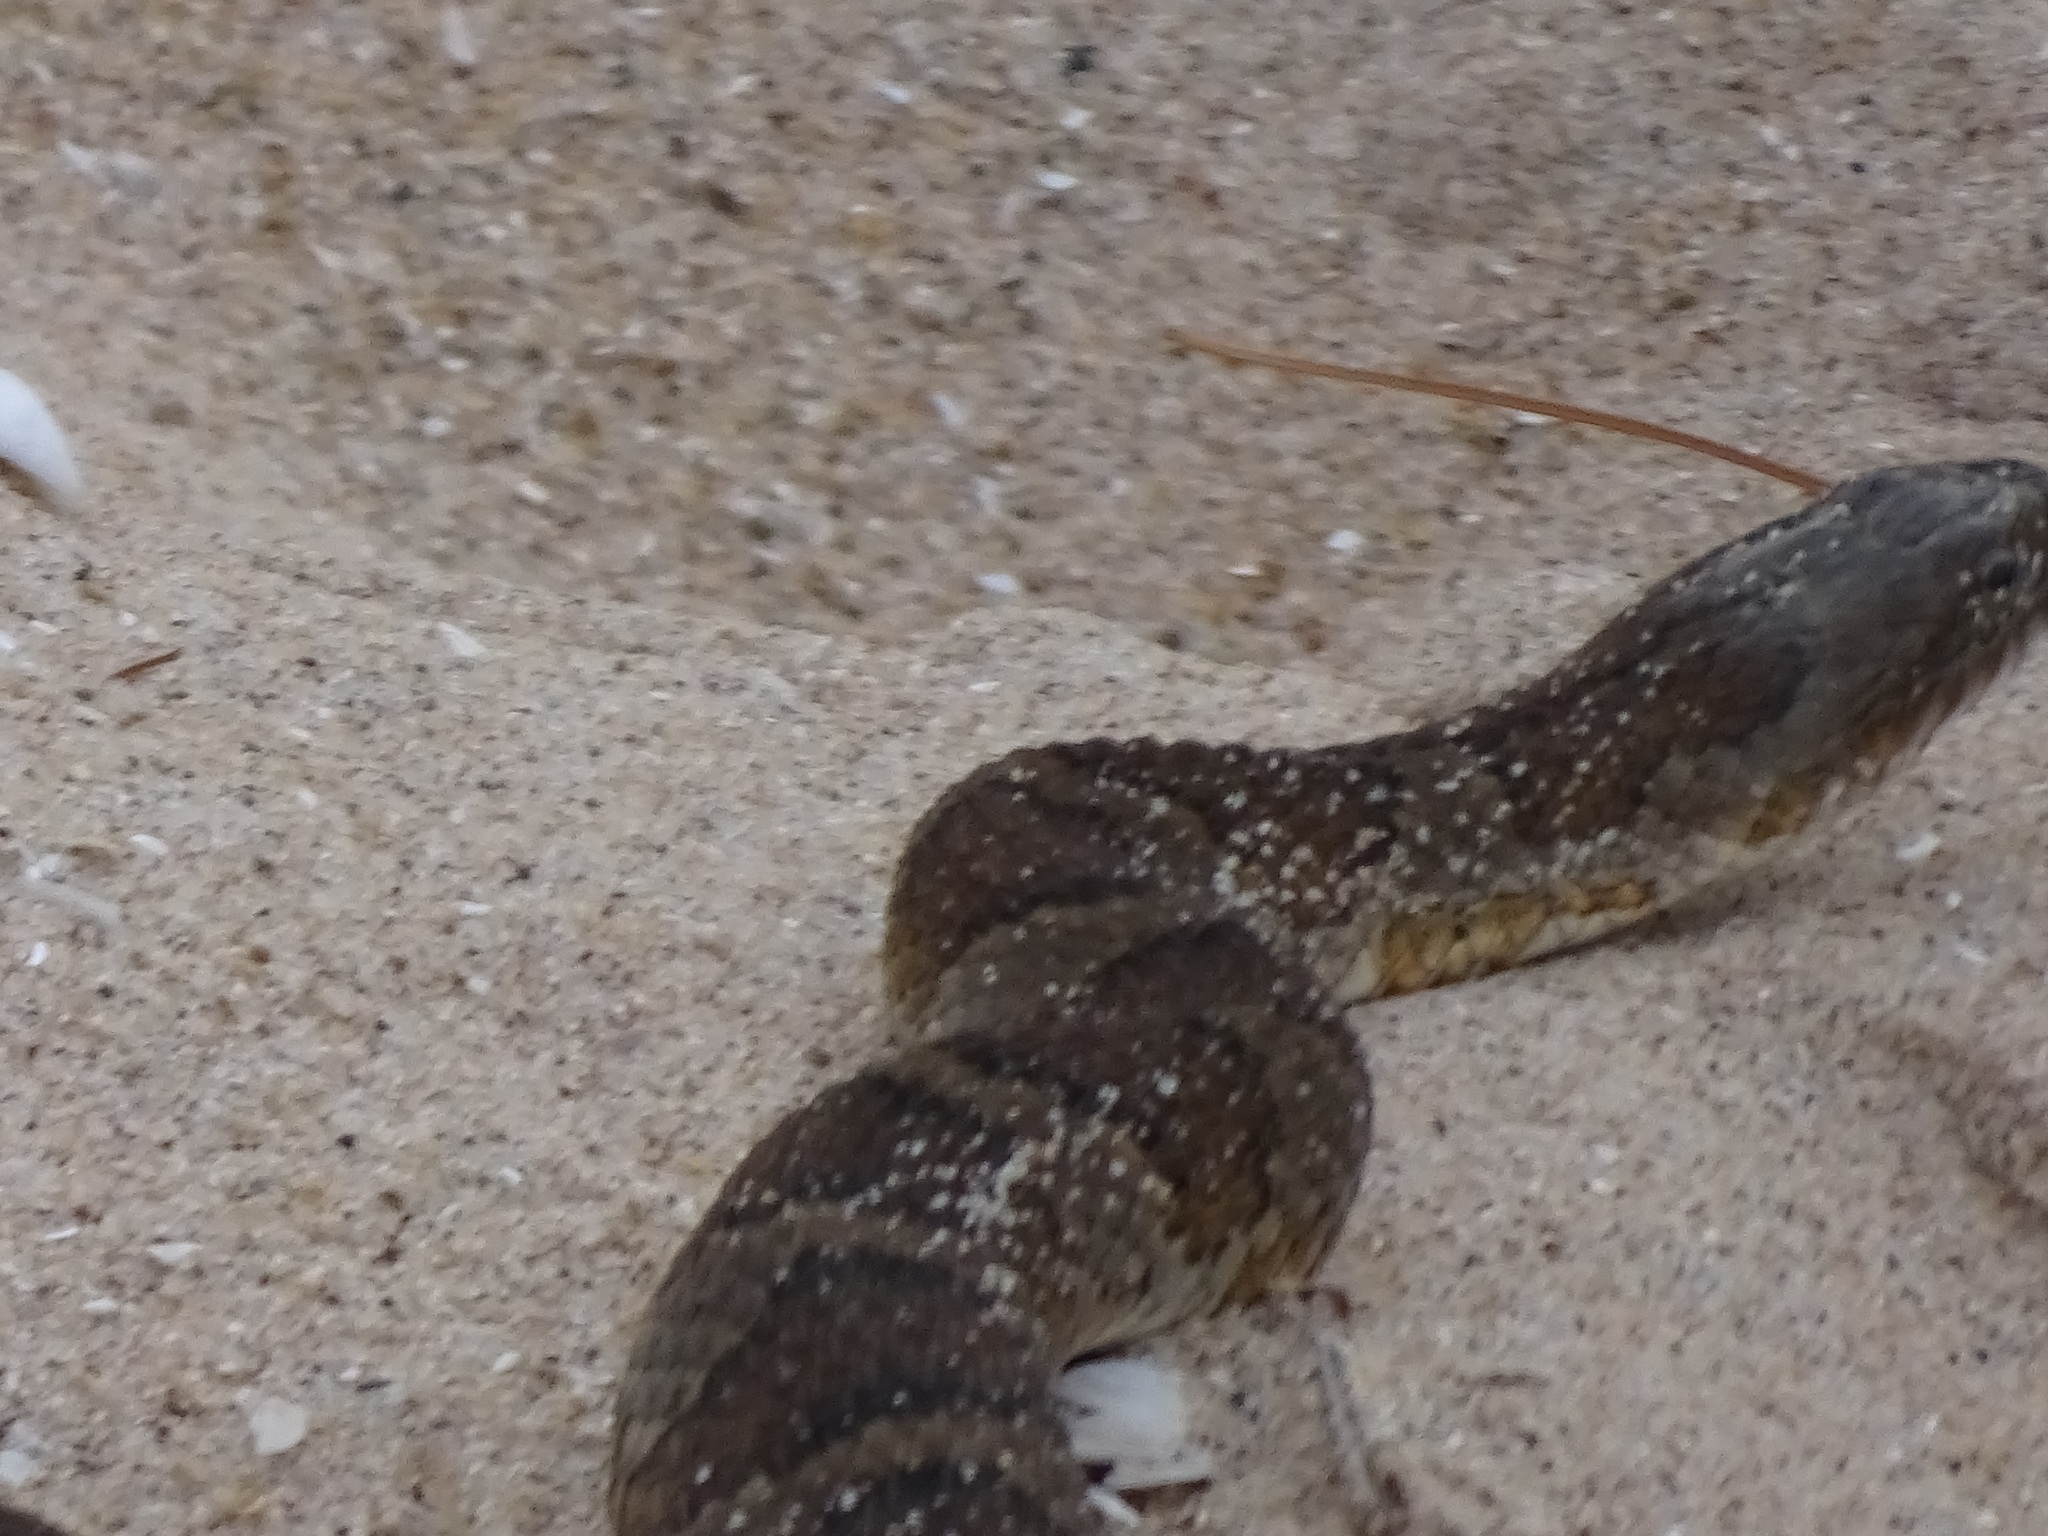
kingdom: Animalia
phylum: Chordata
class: Squamata
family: Colubridae
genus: Nerodia
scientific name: Nerodia sipedon
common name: Northern water snake
